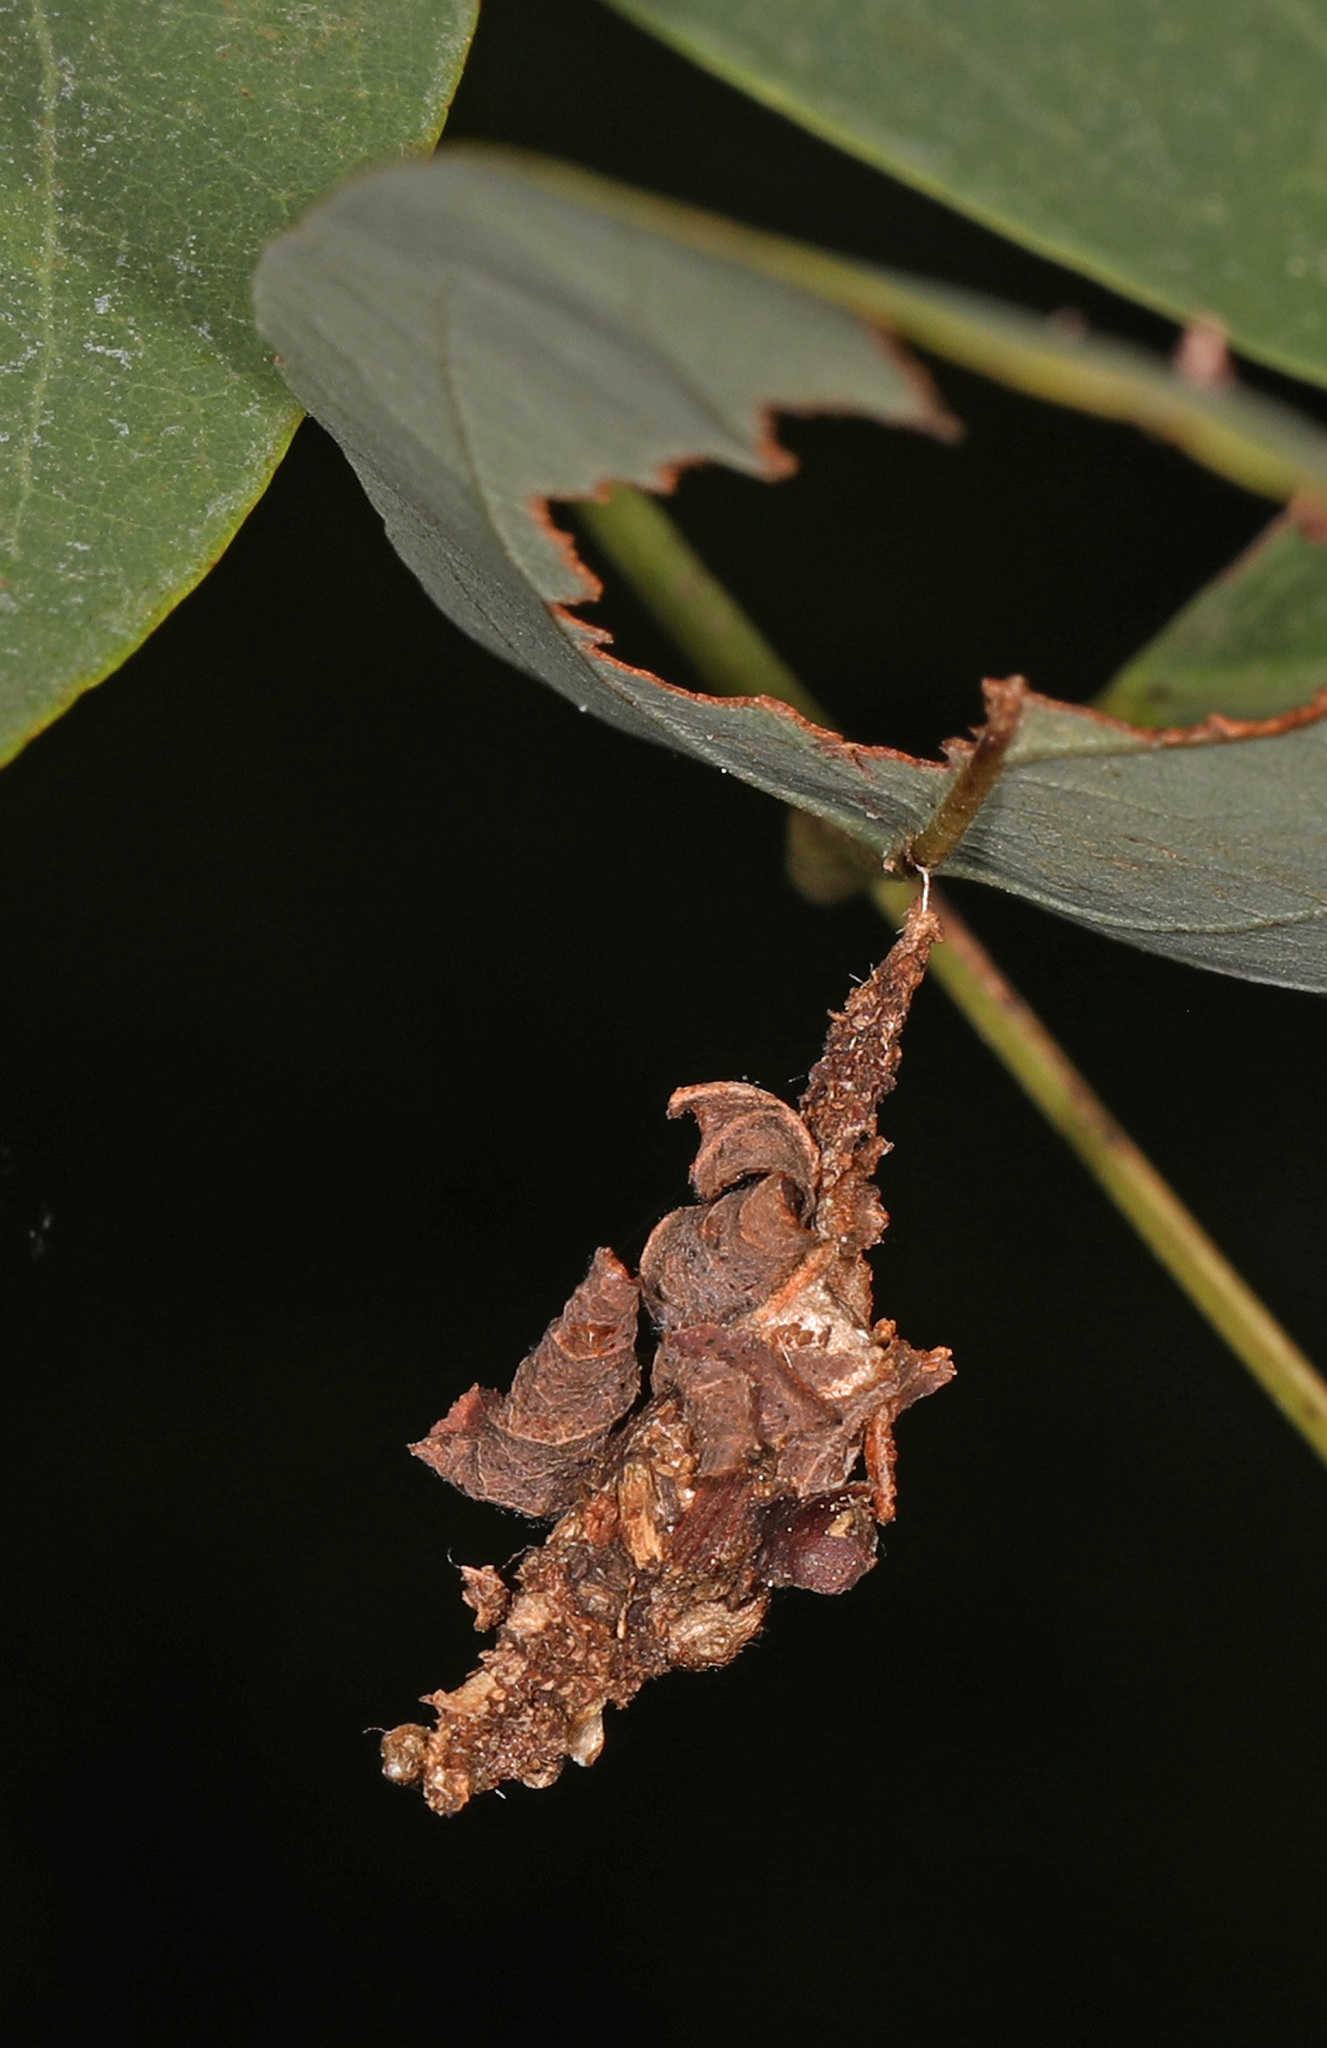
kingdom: Animalia
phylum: Arthropoda
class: Insecta
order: Lepidoptera
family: Psychidae
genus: Thyridopteryx
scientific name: Thyridopteryx ephemeraeformis
